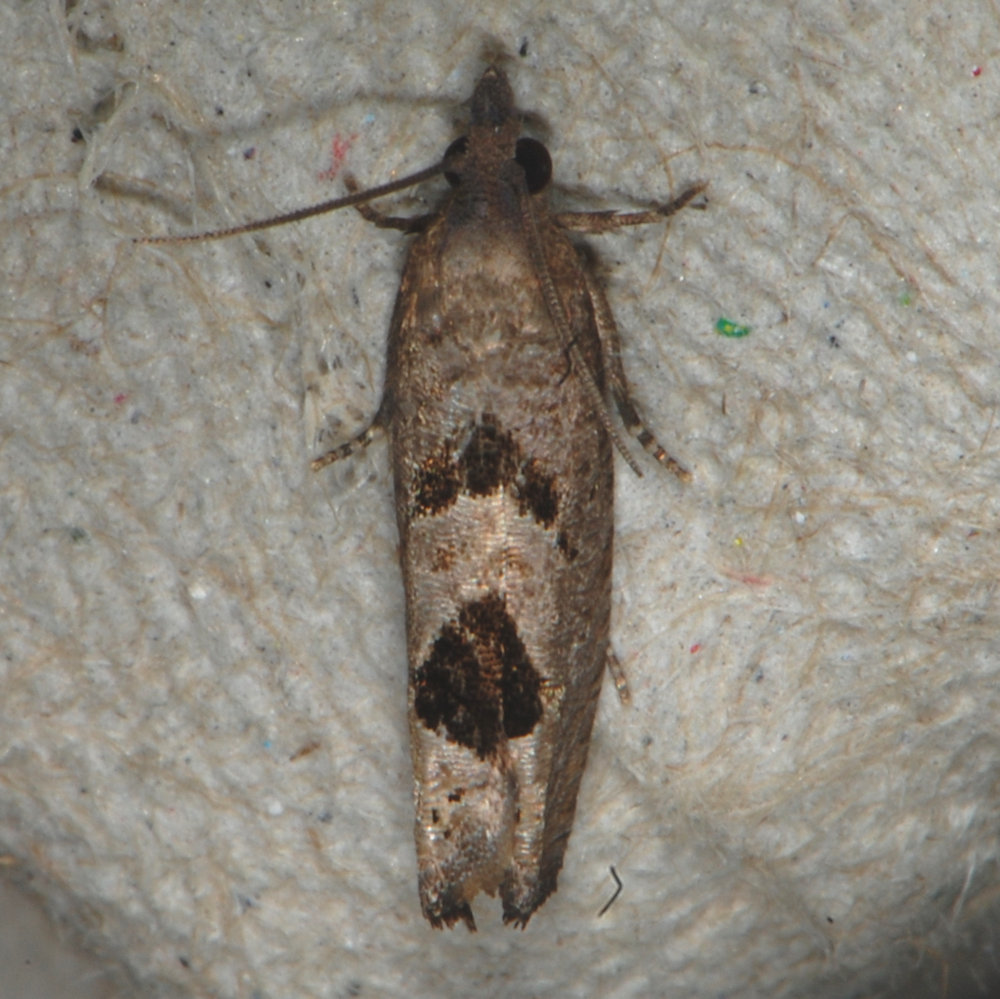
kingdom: Animalia
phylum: Arthropoda
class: Insecta
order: Lepidoptera
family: Tortricidae
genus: Eucosma
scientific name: Eucosma tomonana
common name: Aster-head eucosma moth
